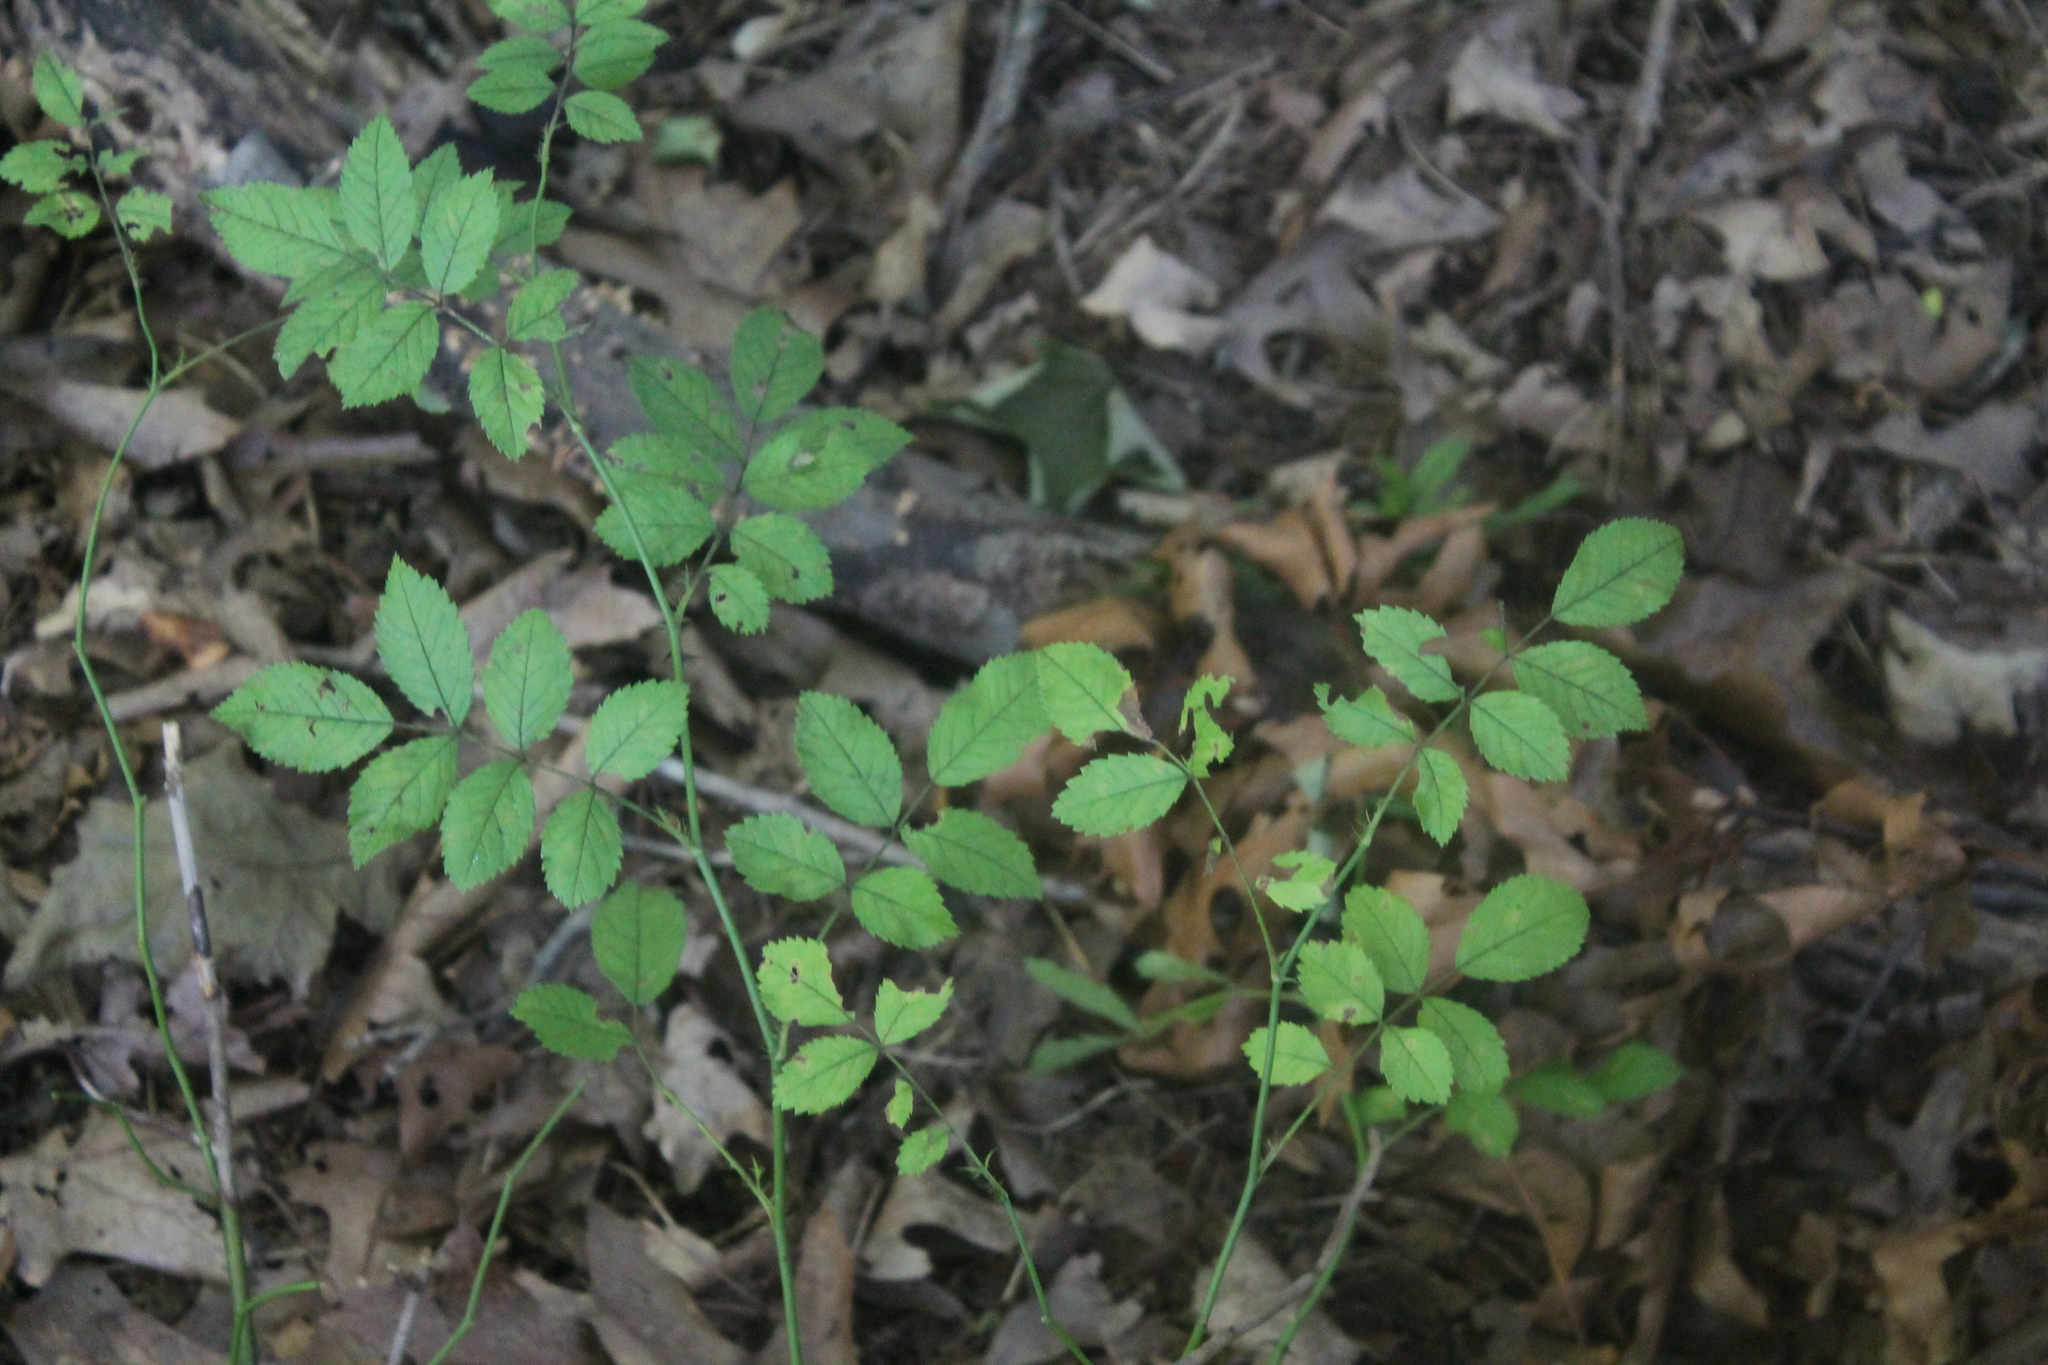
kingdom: Plantae
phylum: Tracheophyta
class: Magnoliopsida
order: Rosales
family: Rosaceae
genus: Rosa
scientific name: Rosa multiflora
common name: Multiflora rose
